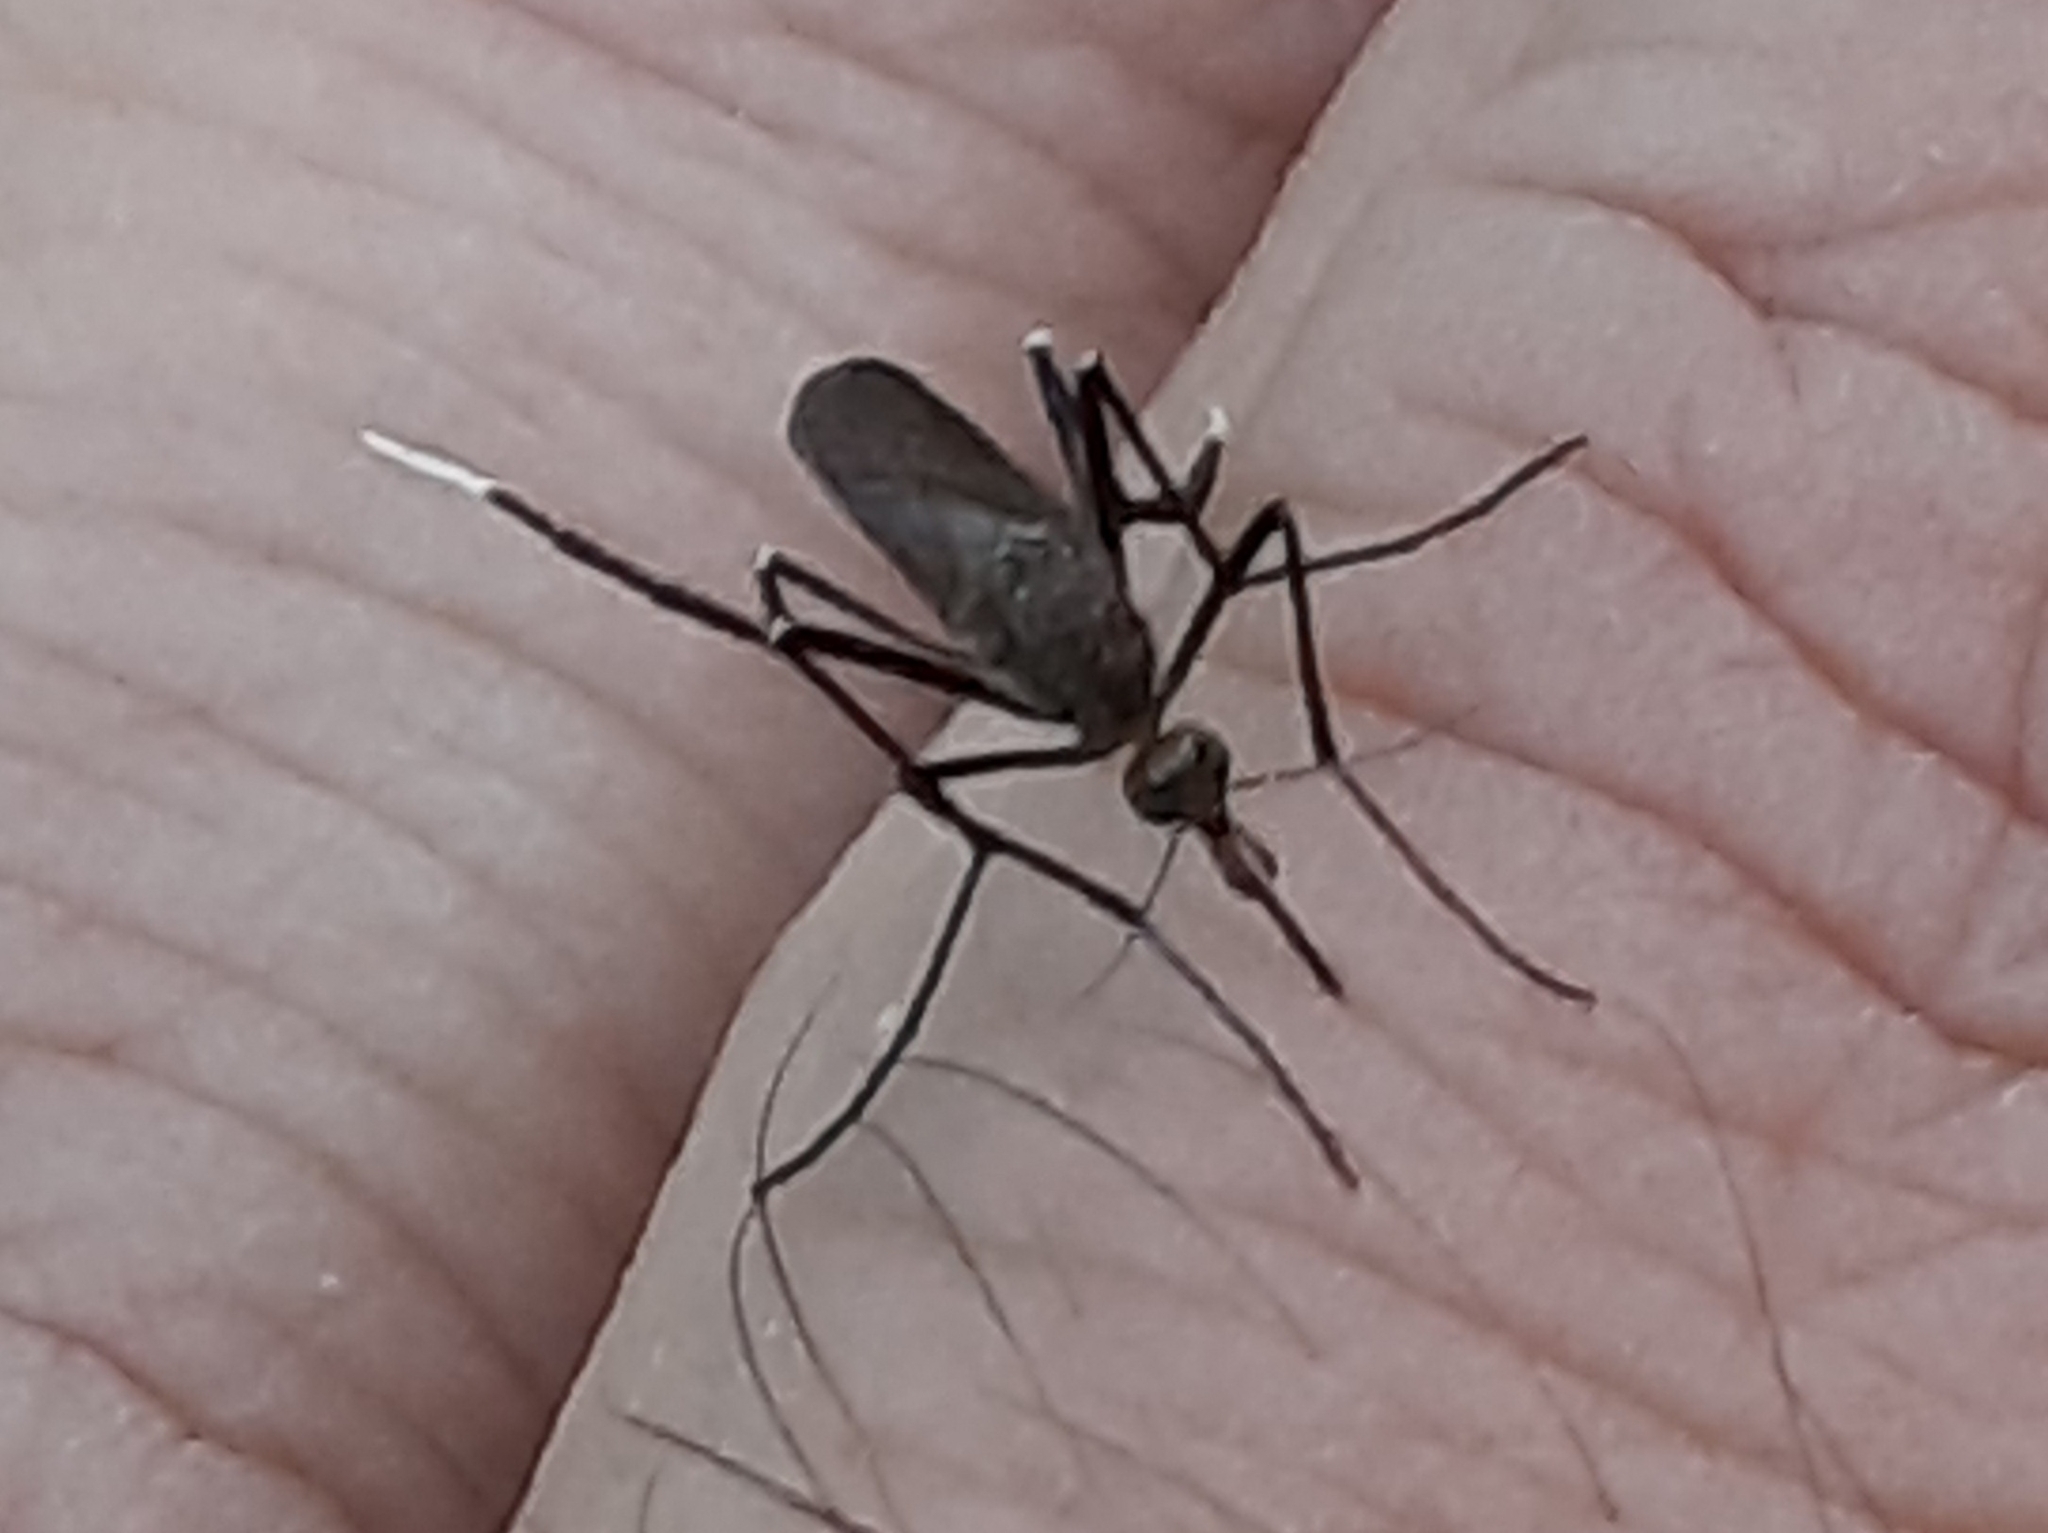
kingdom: Animalia
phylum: Arthropoda
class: Insecta
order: Diptera
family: Culicidae
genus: Psorophora
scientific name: Psorophora ferox
